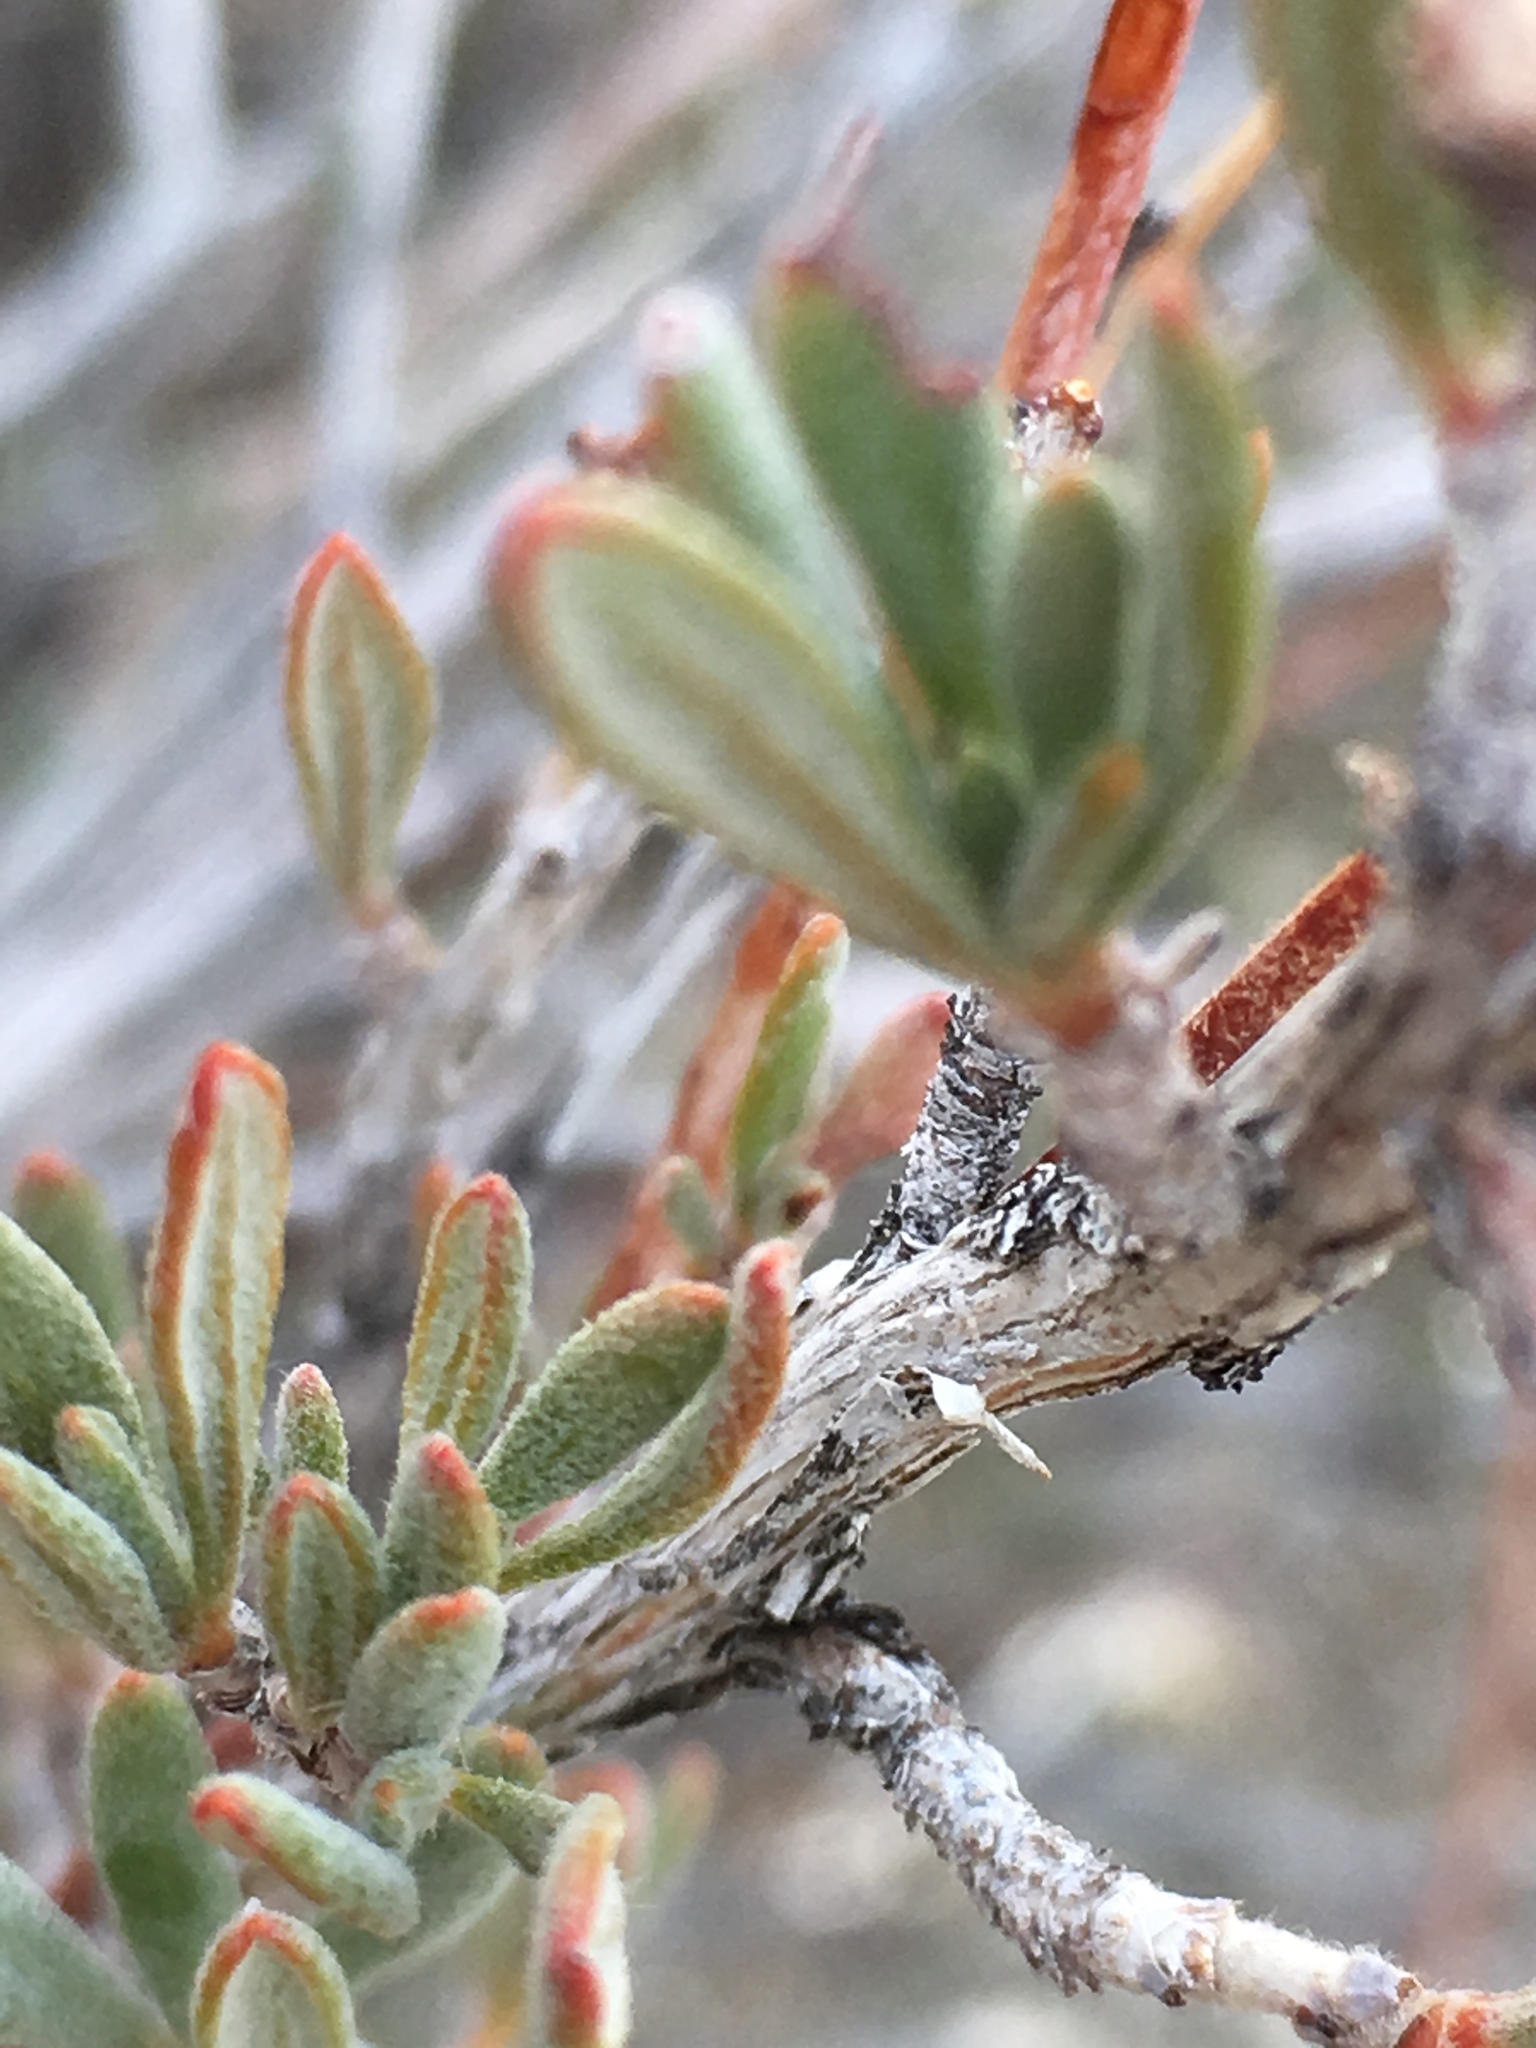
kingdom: Plantae
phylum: Tracheophyta
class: Magnoliopsida
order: Caryophyllales
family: Polygonaceae
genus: Eriogonum
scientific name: Eriogonum fasciculatum
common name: California wild buckwheat
